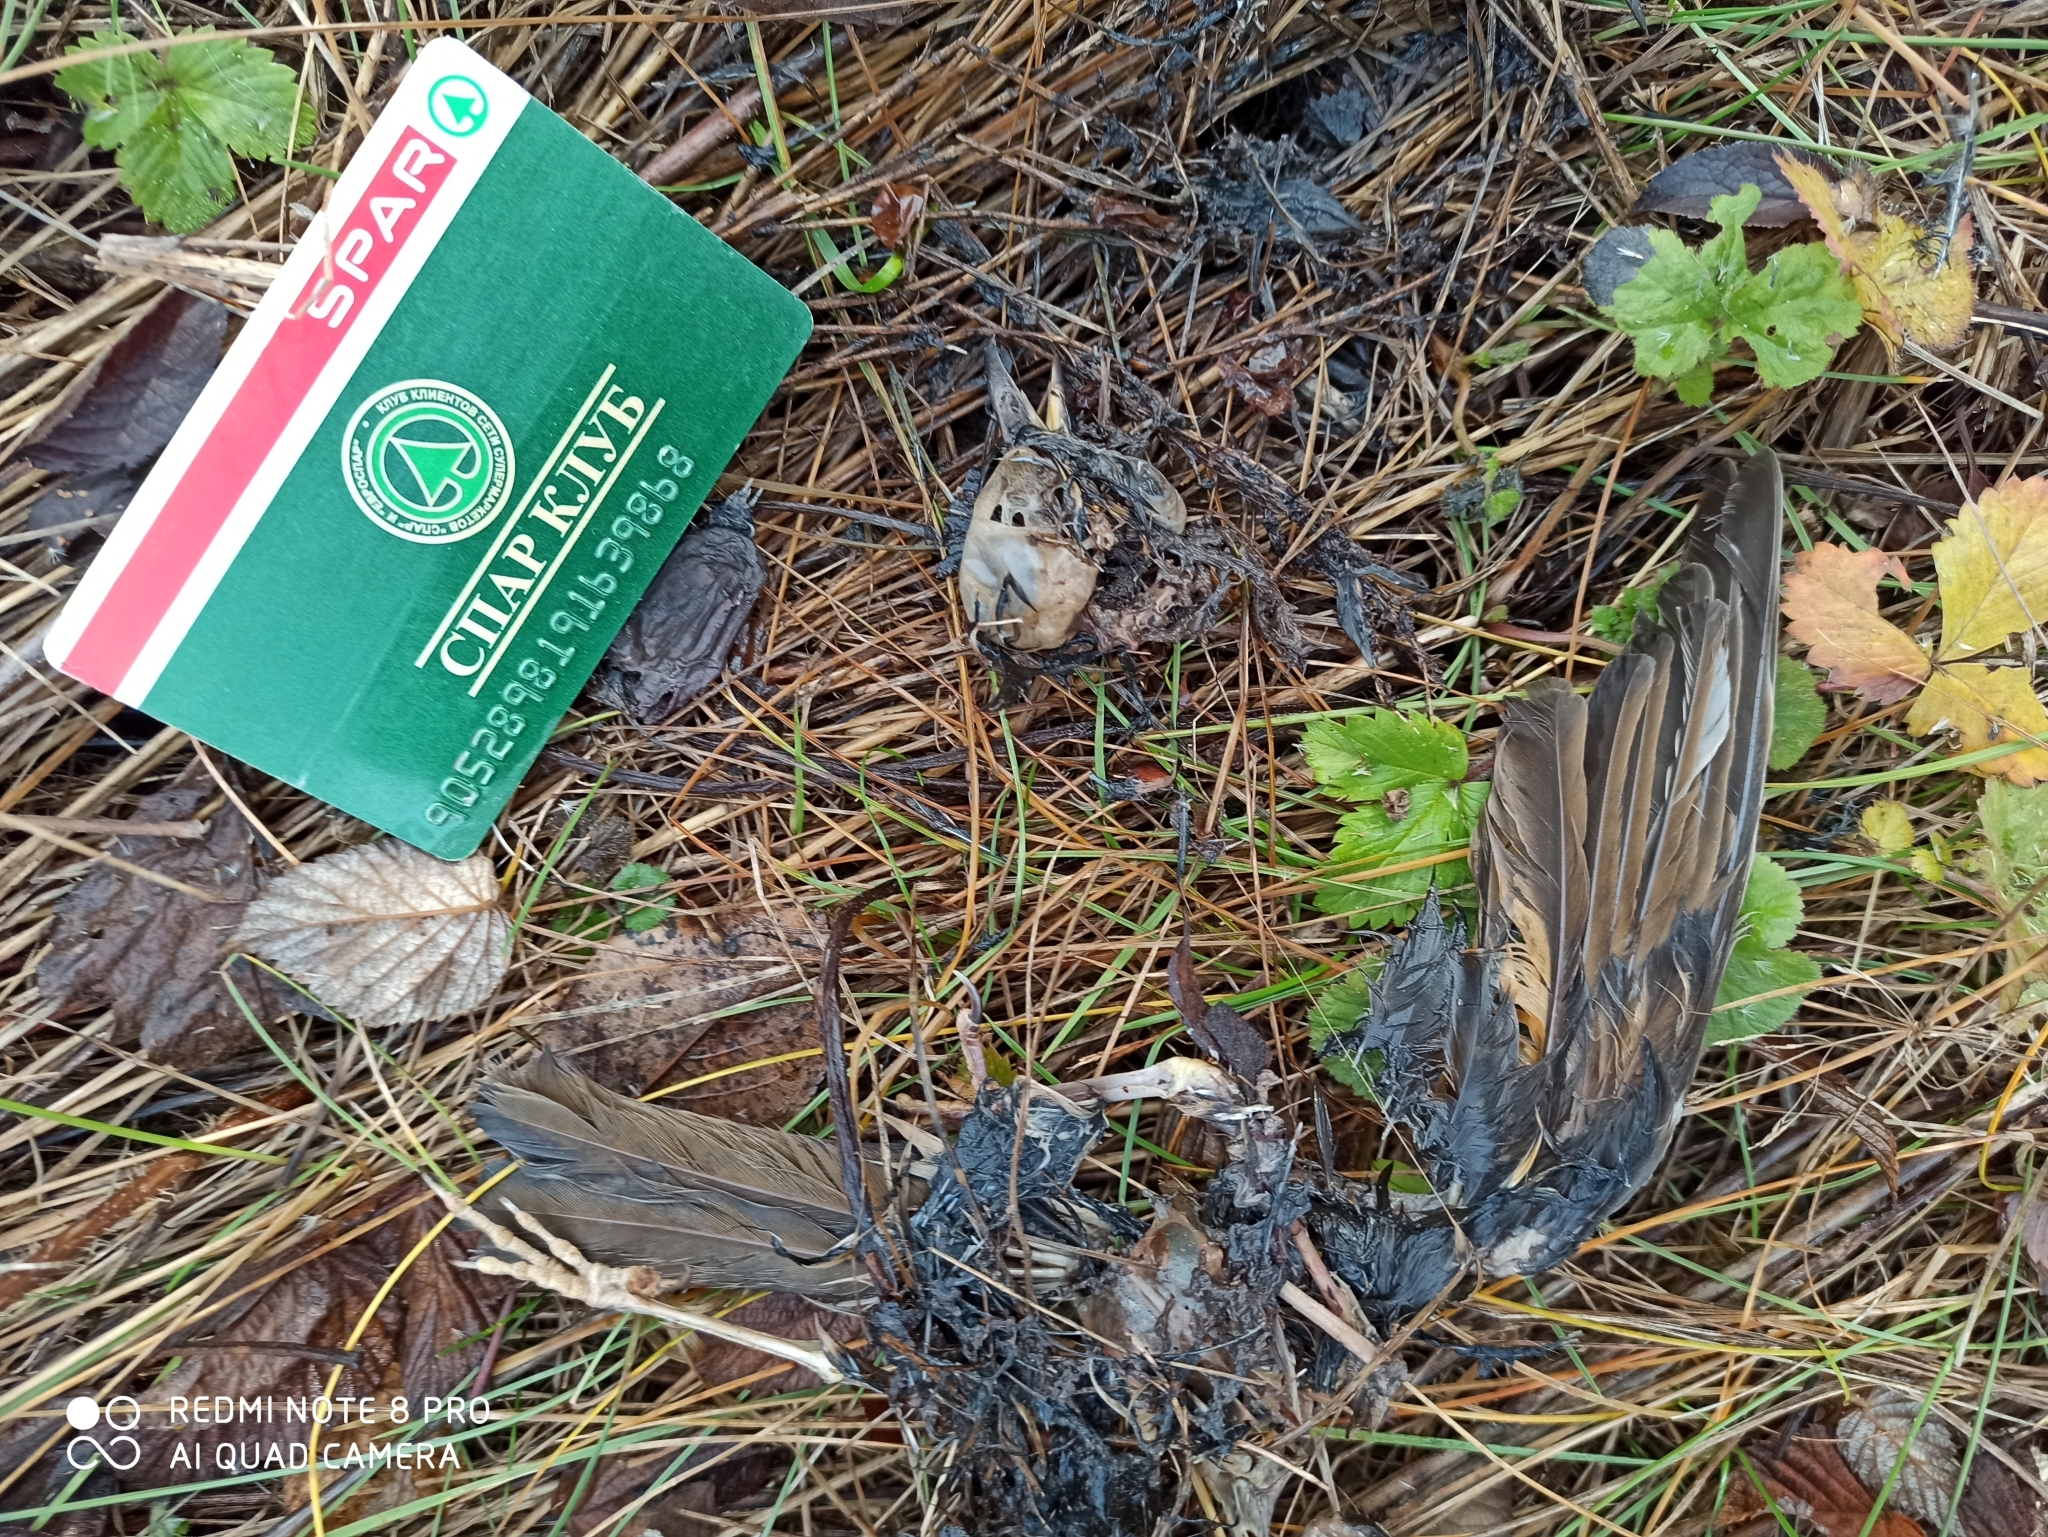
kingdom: Animalia
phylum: Chordata
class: Aves
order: Passeriformes
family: Turdidae
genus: Turdus
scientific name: Turdus philomelos
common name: Song thrush
